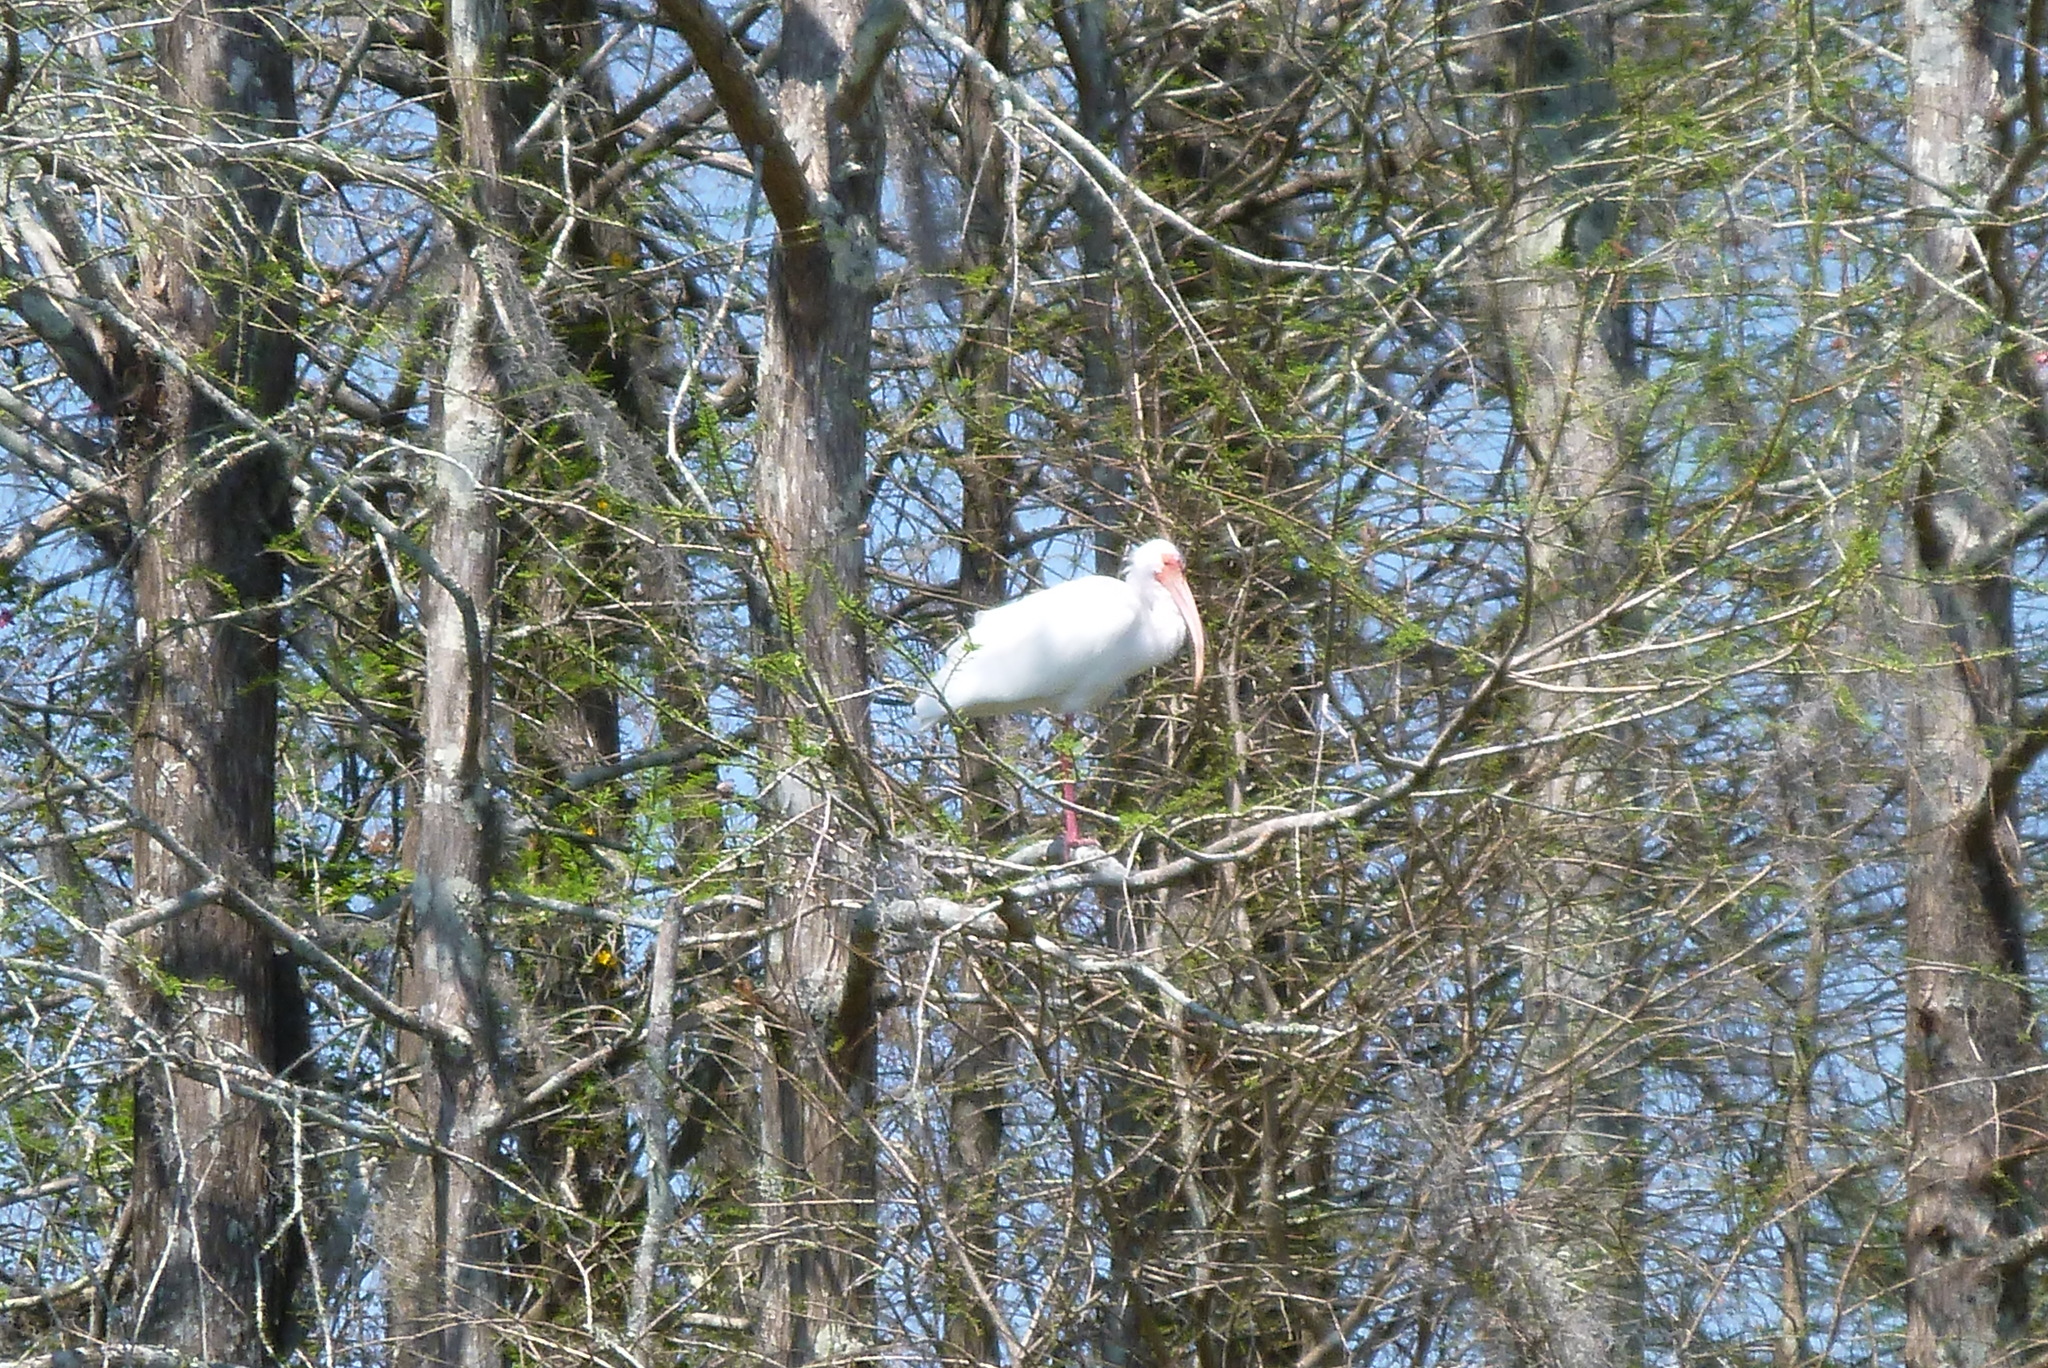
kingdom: Animalia
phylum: Chordata
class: Aves
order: Pelecaniformes
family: Threskiornithidae
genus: Eudocimus
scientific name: Eudocimus albus
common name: White ibis
